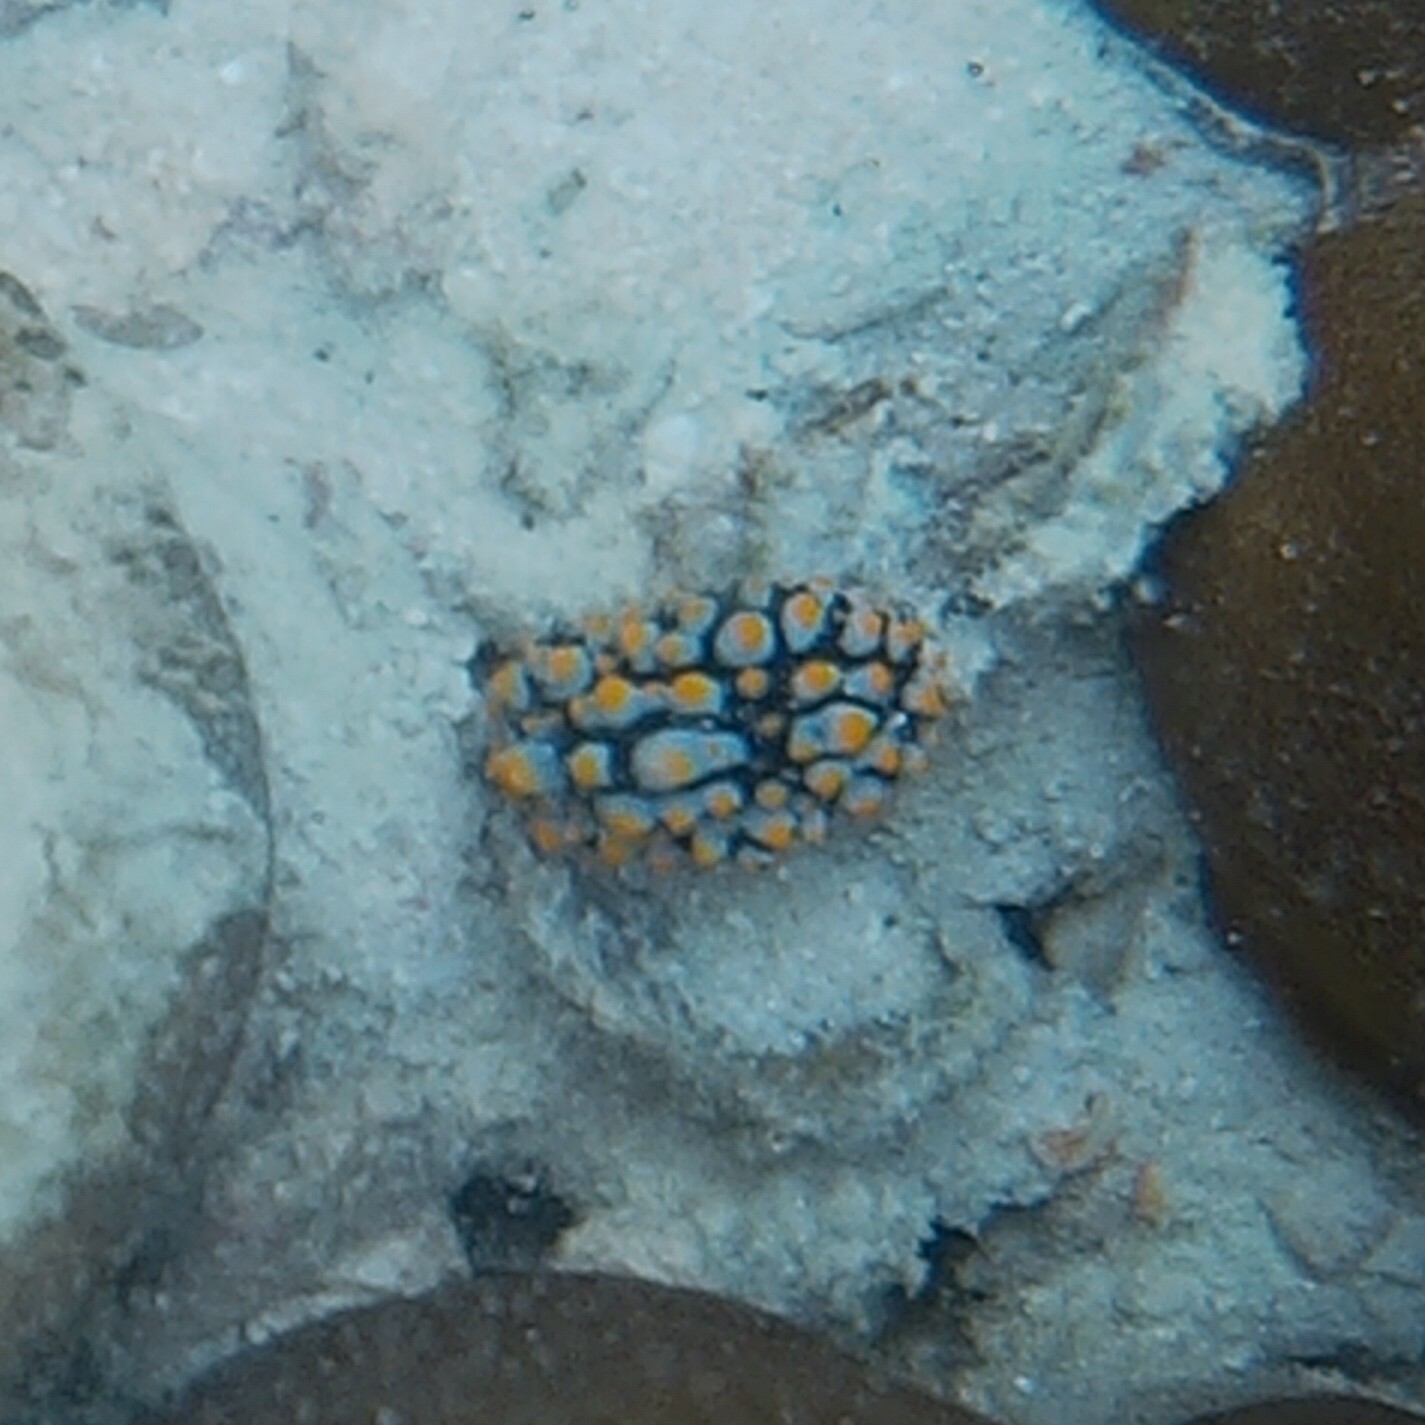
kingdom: Animalia
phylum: Mollusca
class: Gastropoda
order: Nudibranchia
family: Phyllidiidae
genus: Phyllidia
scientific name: Phyllidia varicosa
